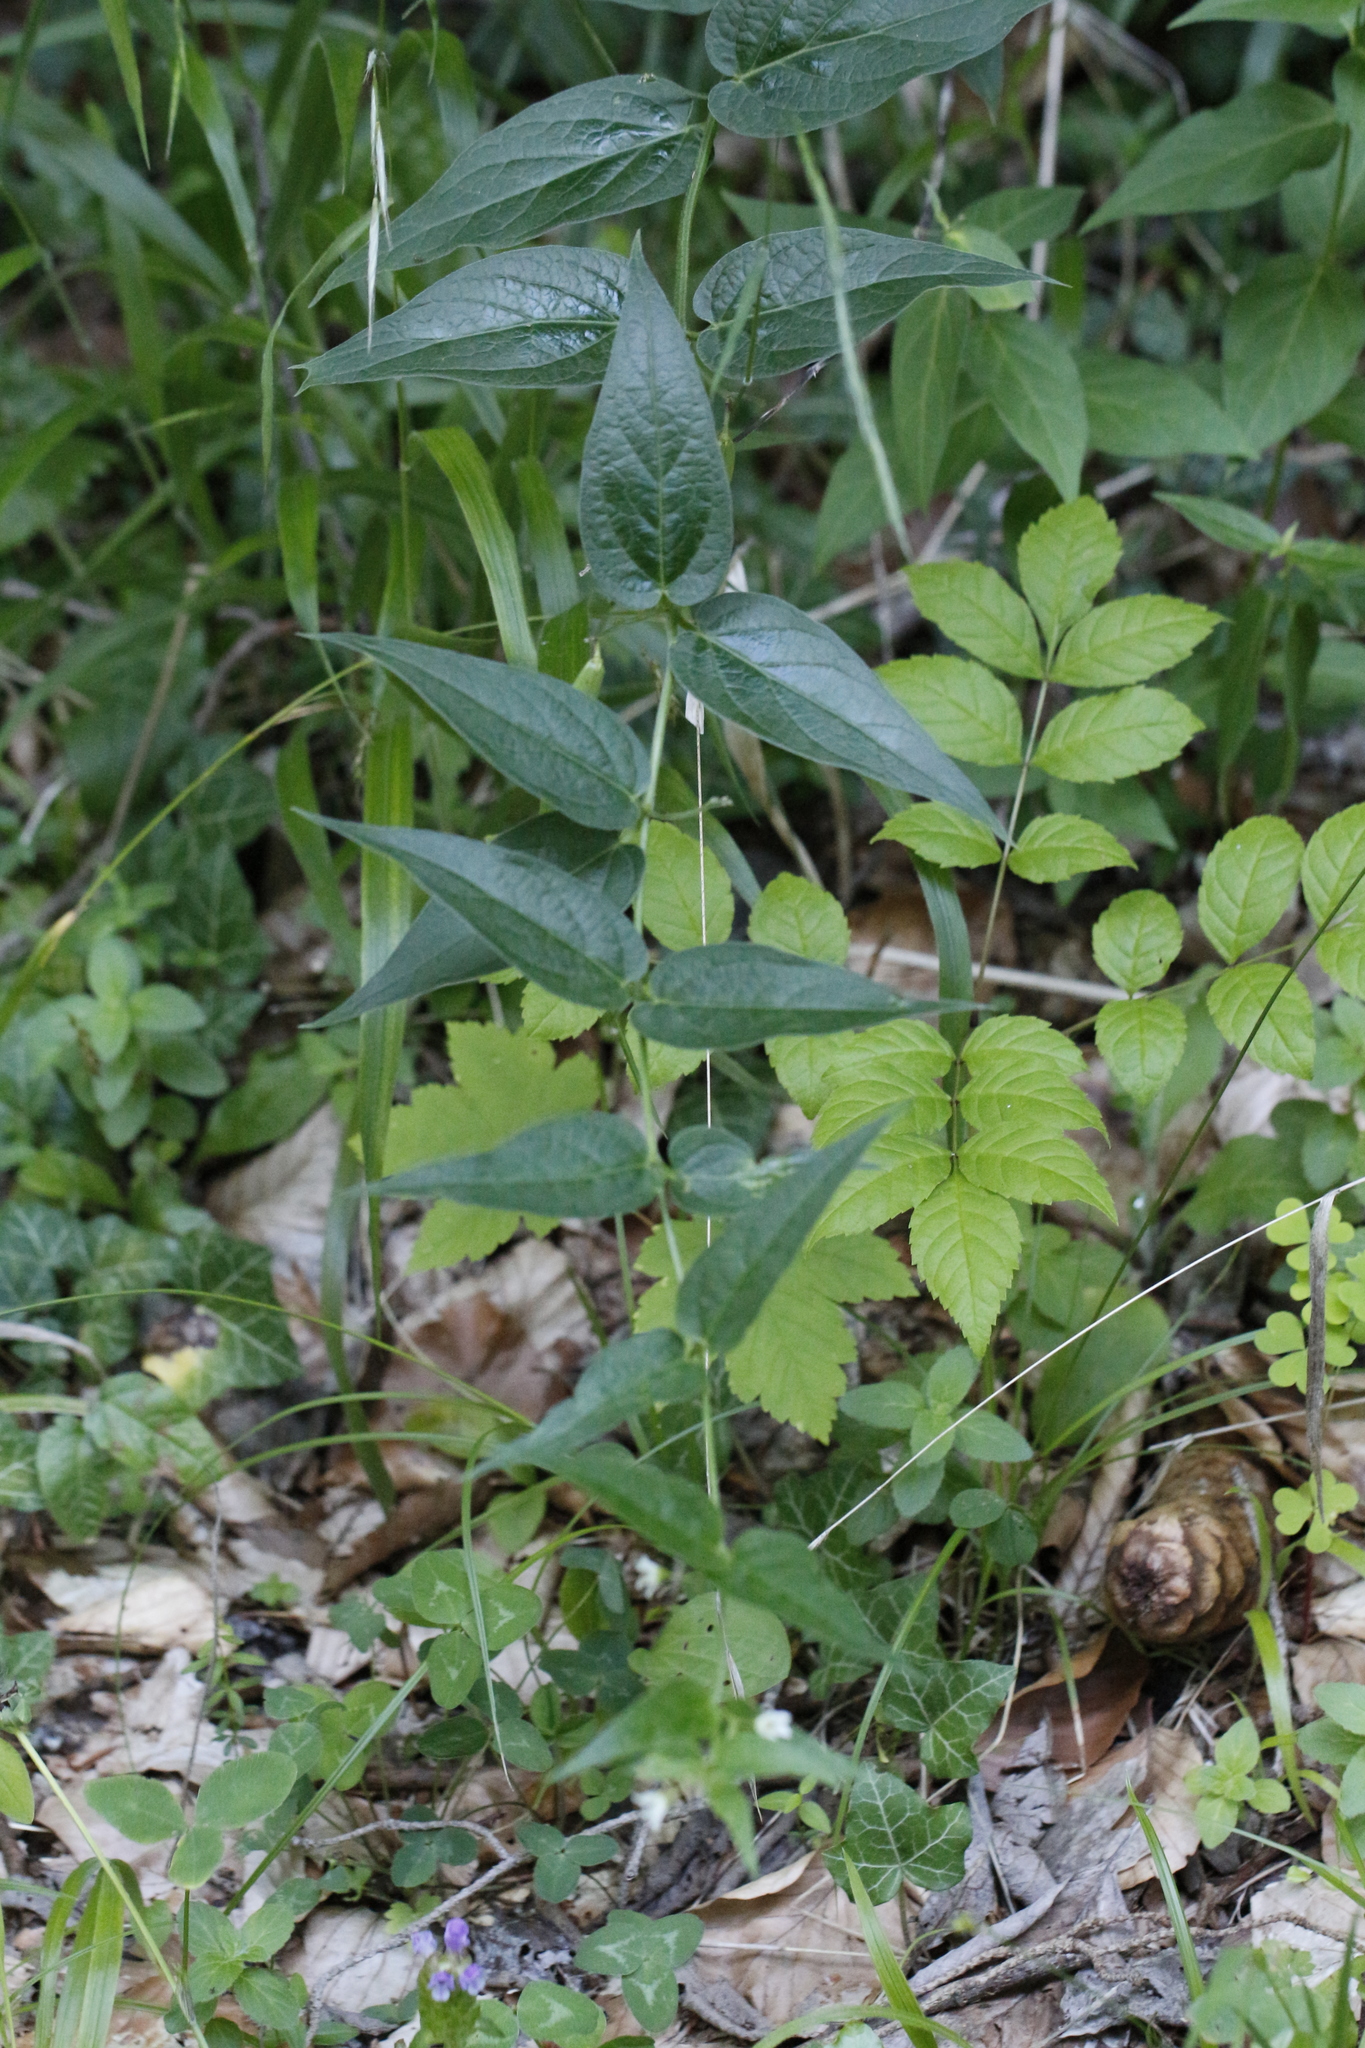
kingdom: Plantae
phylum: Tracheophyta
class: Magnoliopsida
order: Gentianales
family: Apocynaceae
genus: Vincetoxicum
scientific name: Vincetoxicum hirundinaria
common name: White swallowwort
